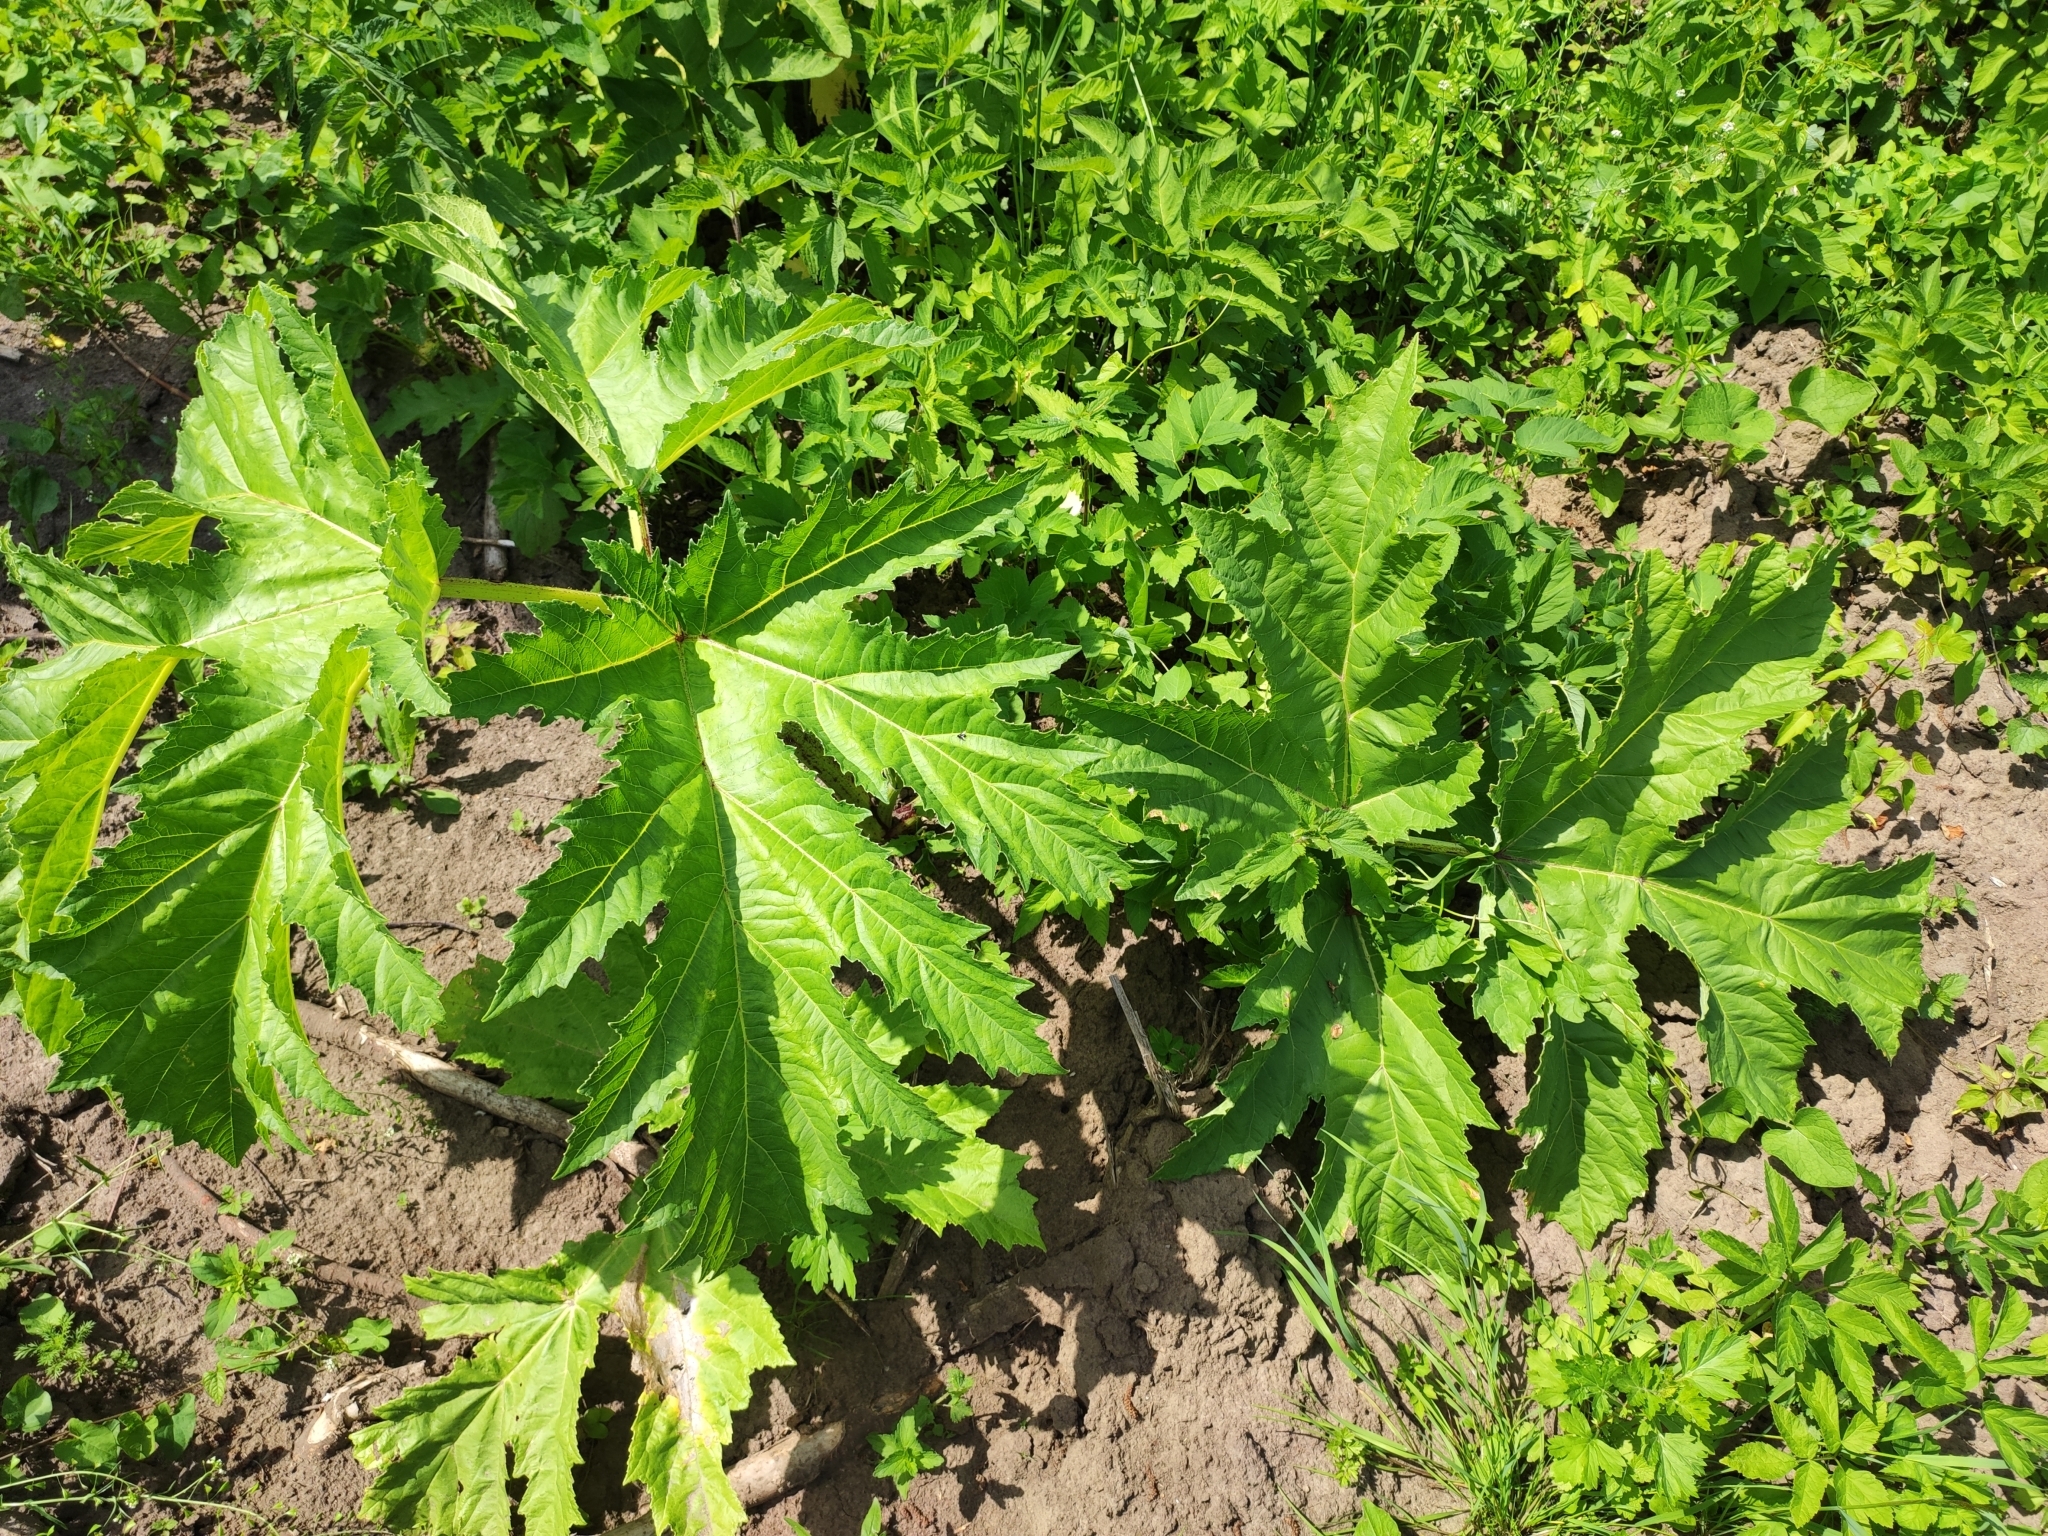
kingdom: Plantae
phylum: Tracheophyta
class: Magnoliopsida
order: Apiales
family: Apiaceae
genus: Heracleum
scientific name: Heracleum sosnowskyi
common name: Sosnowsky's hogweed
